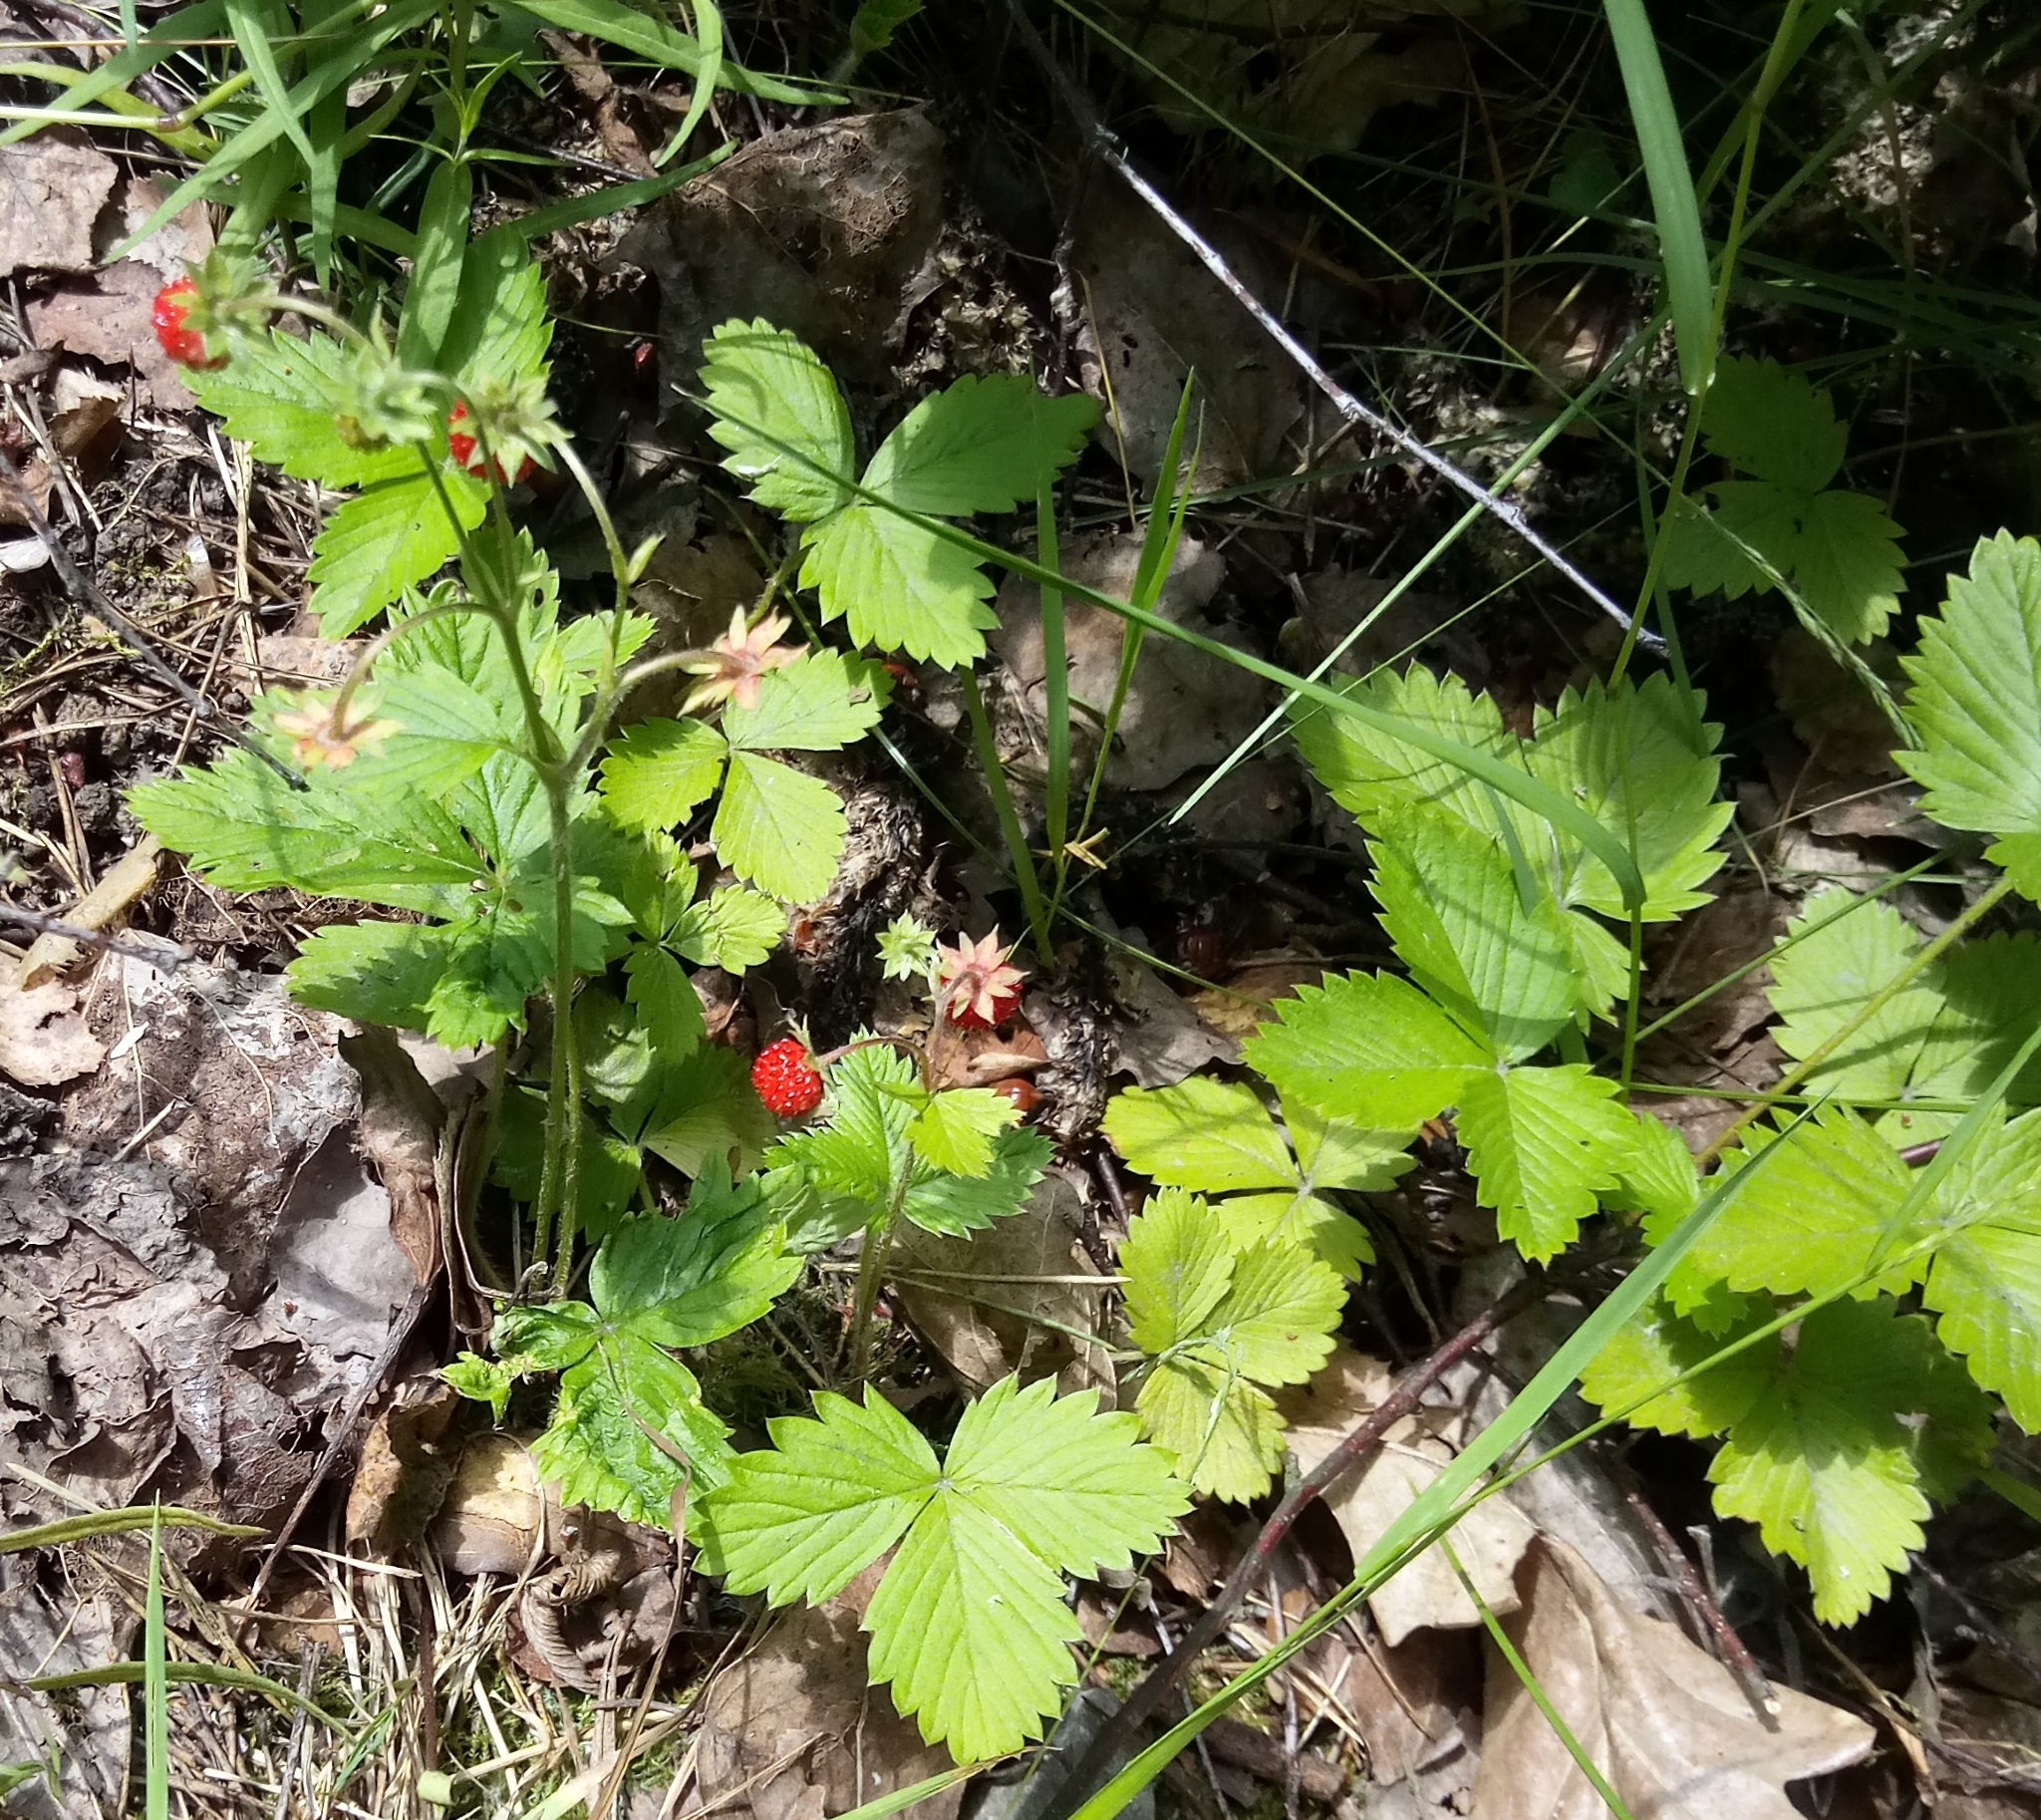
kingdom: Plantae
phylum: Tracheophyta
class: Magnoliopsida
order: Rosales
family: Rosaceae
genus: Fragaria
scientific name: Fragaria vesca
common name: Wild strawberry
